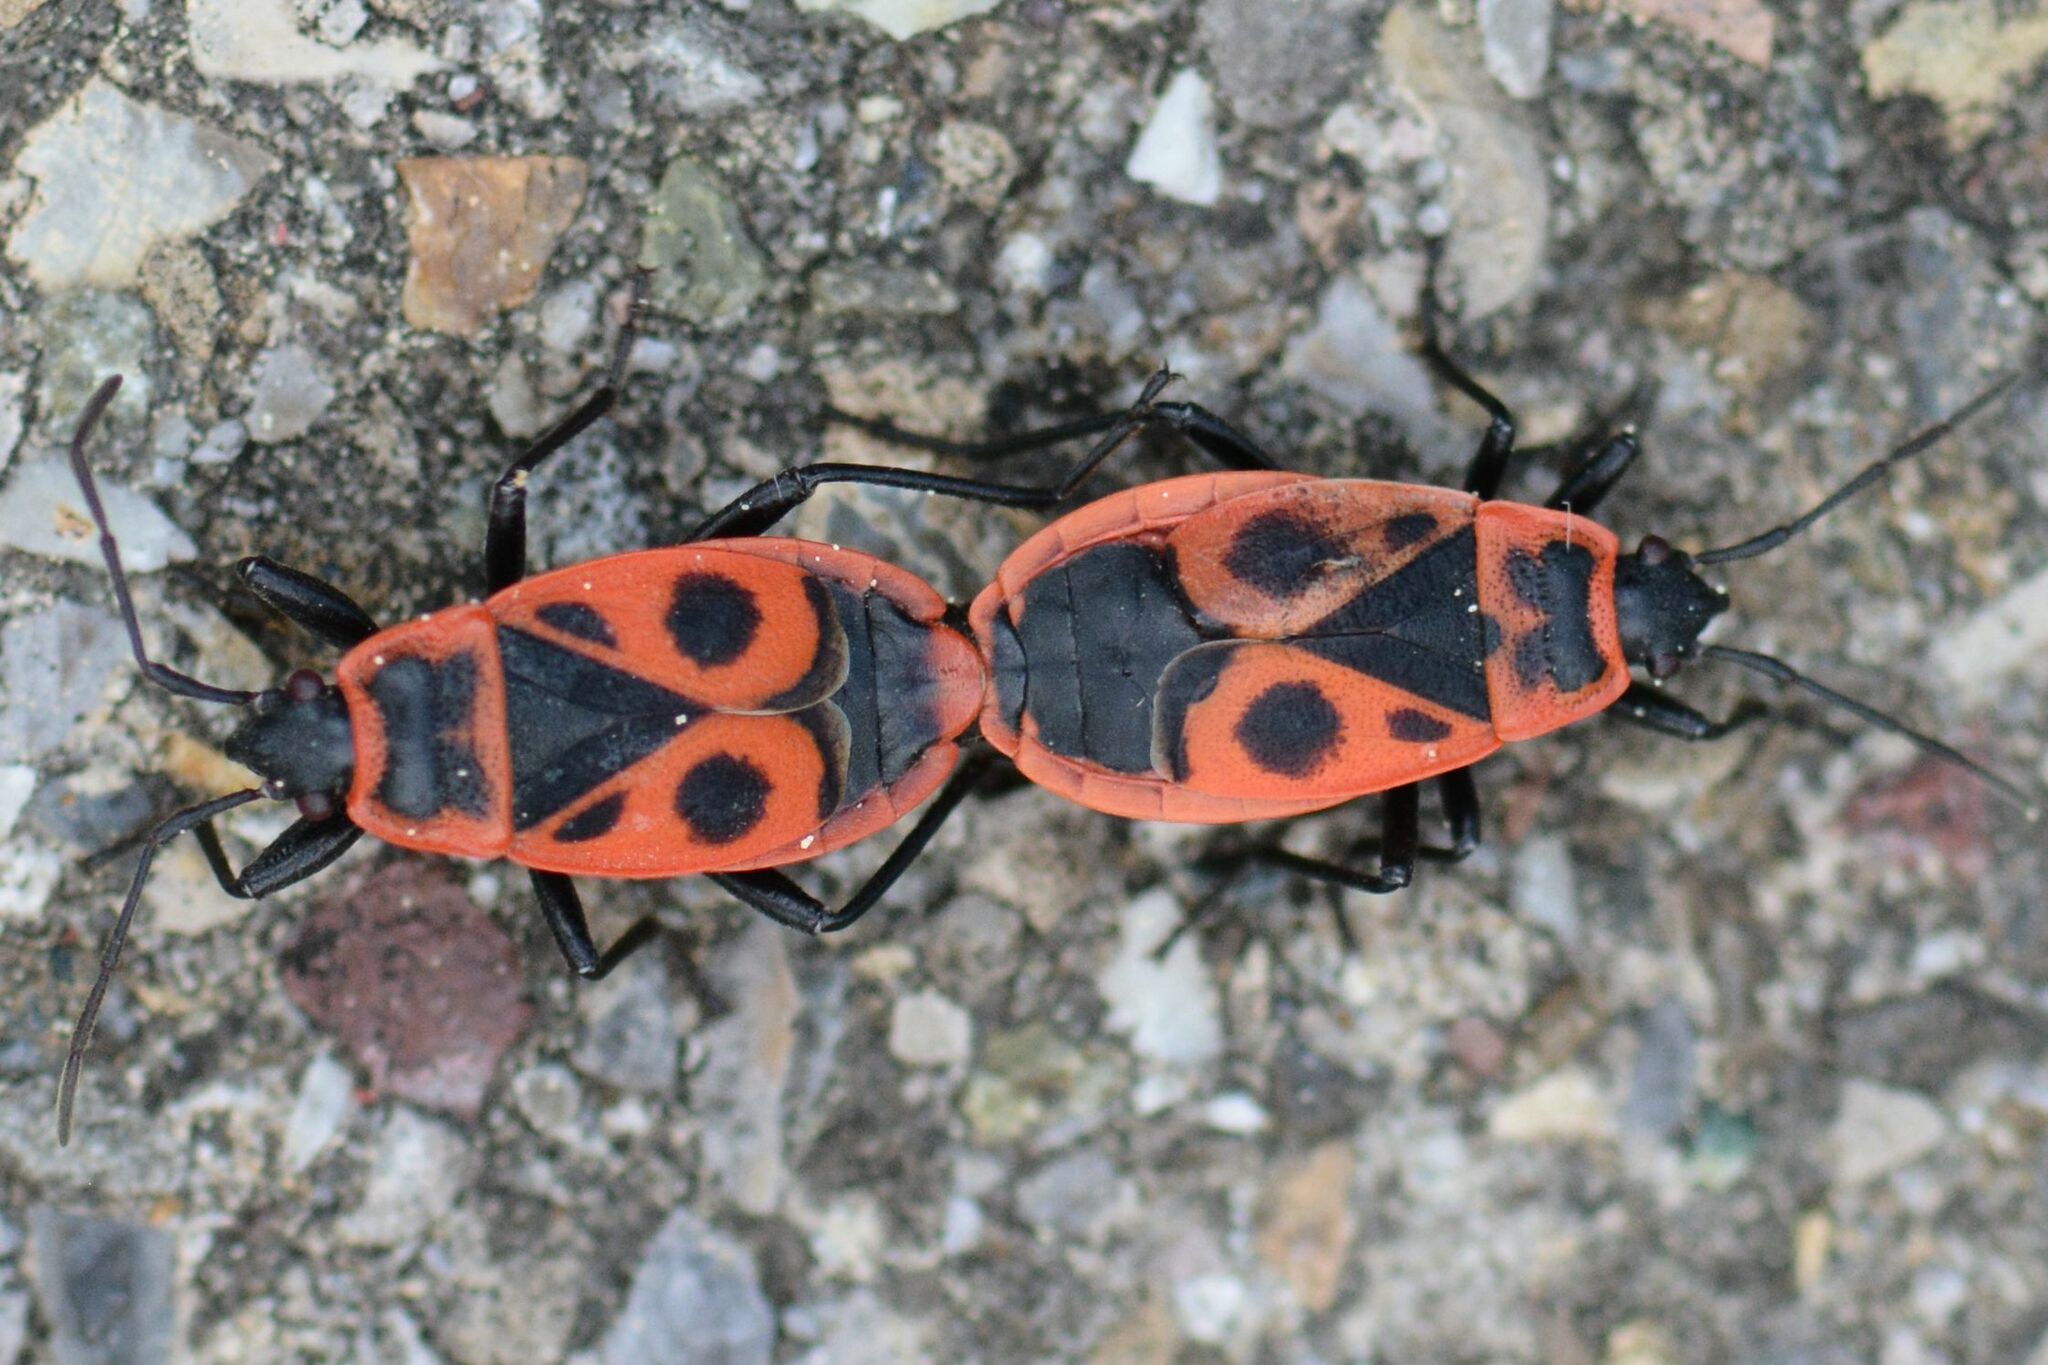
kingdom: Animalia
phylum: Arthropoda
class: Insecta
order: Hemiptera
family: Pyrrhocoridae
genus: Pyrrhocoris
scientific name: Pyrrhocoris apterus
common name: Firebug
